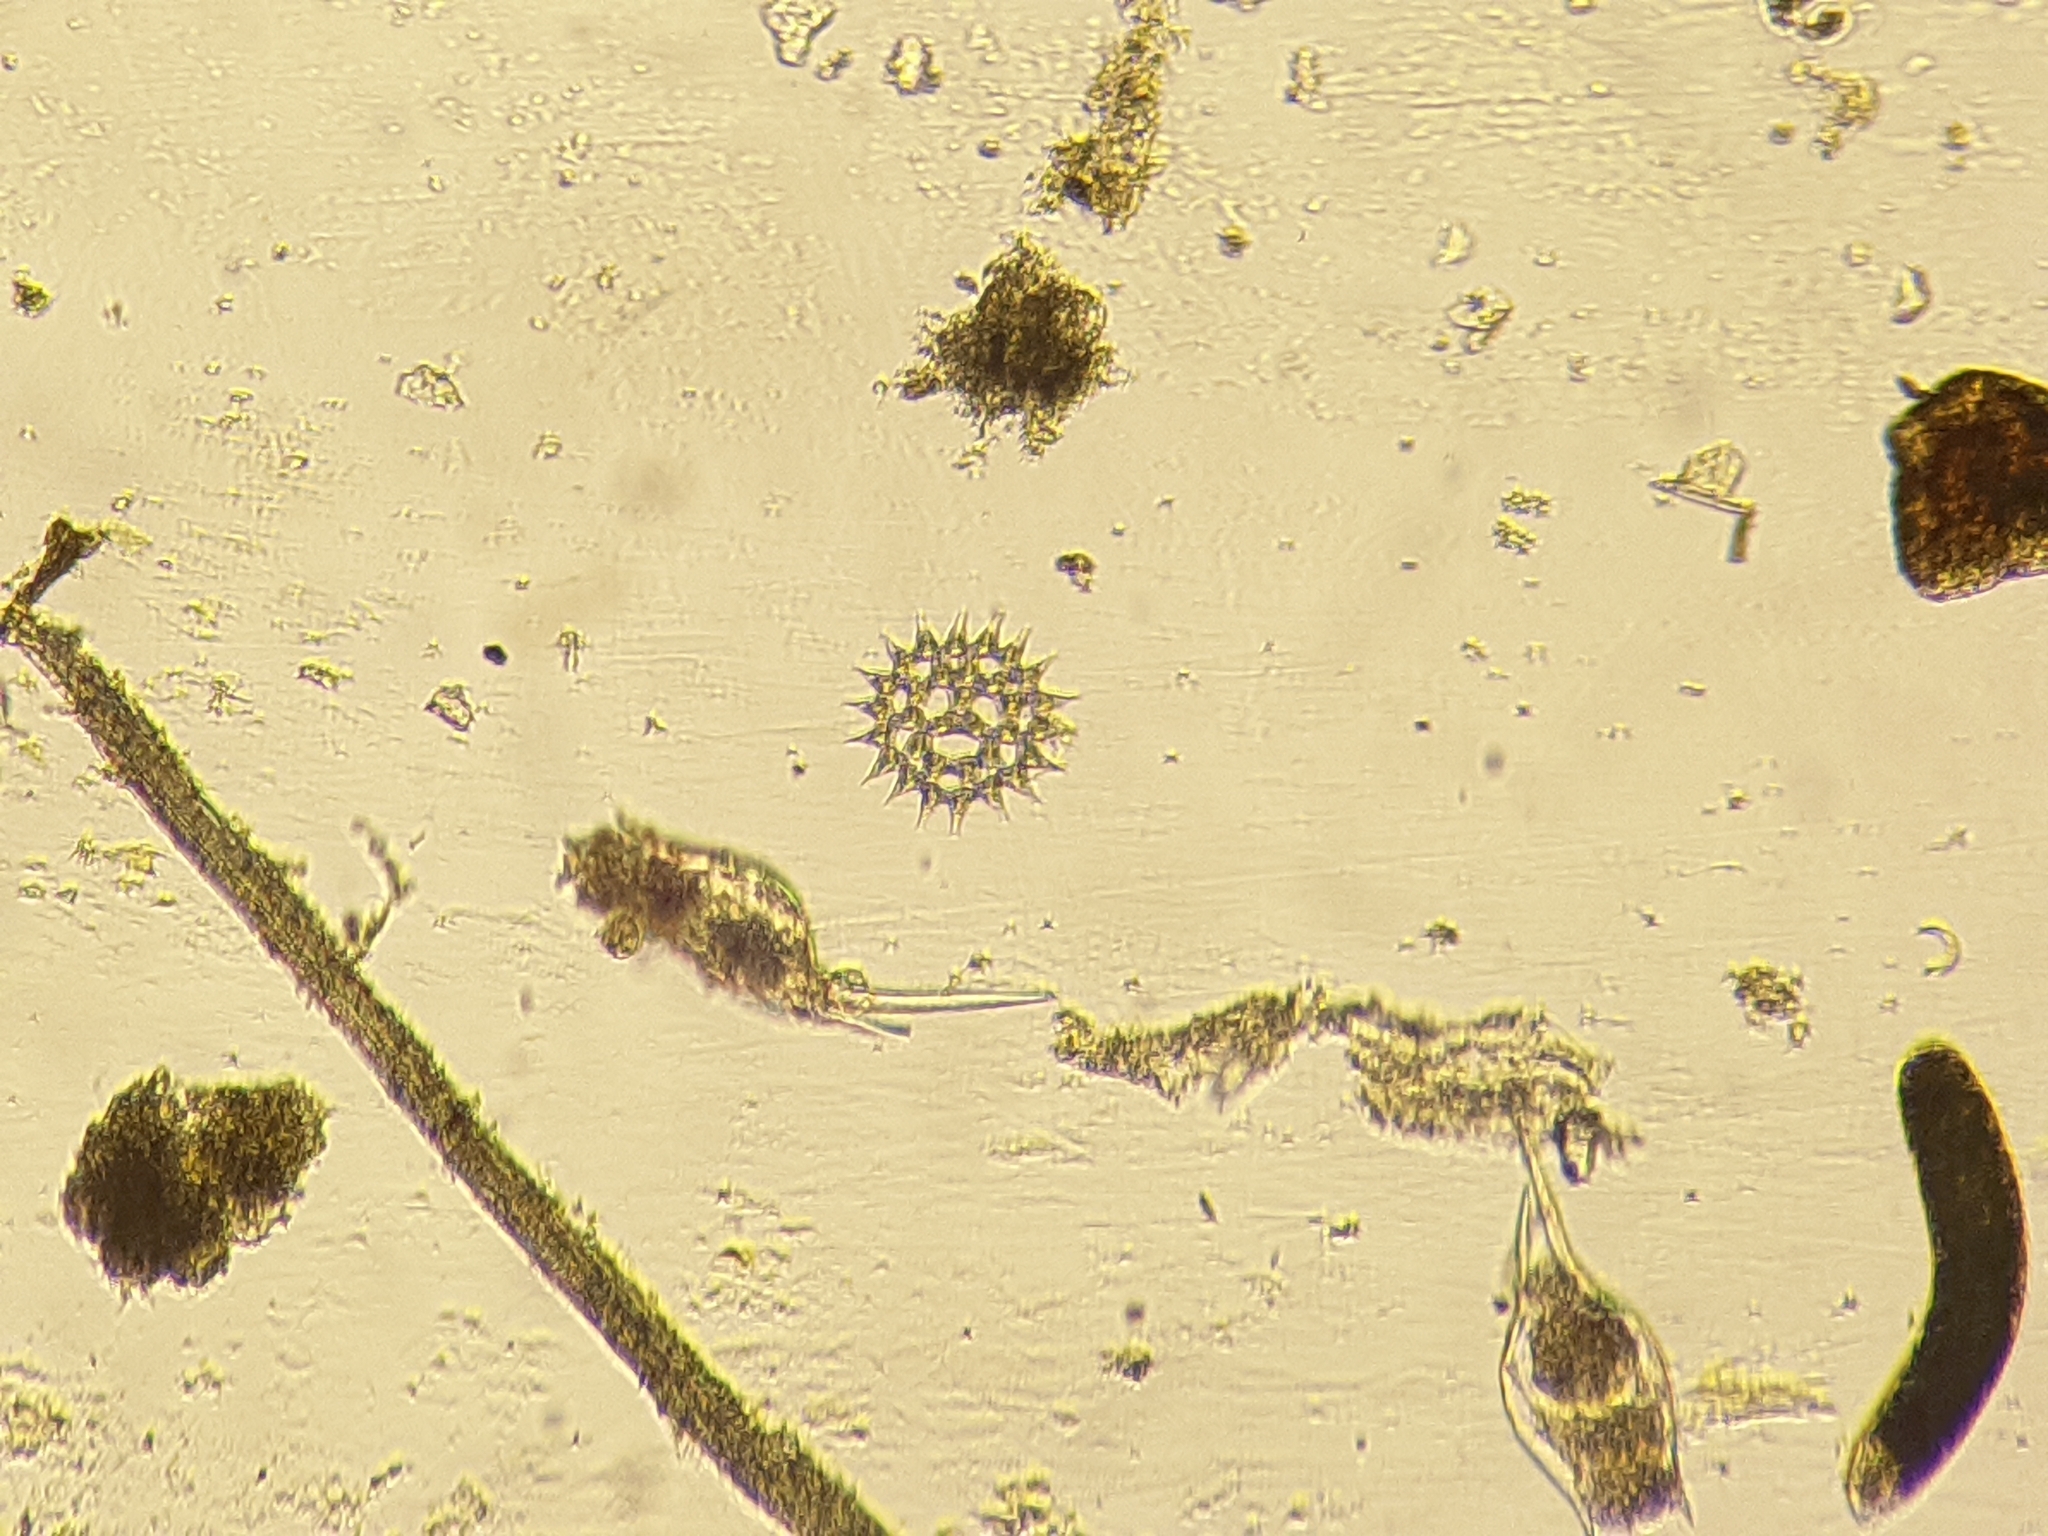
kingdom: Plantae
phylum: Chlorophyta
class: Chlorophyceae
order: Sphaeropleales
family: Hydrodictyaceae
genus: Monactinus
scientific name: Monactinus simplex
